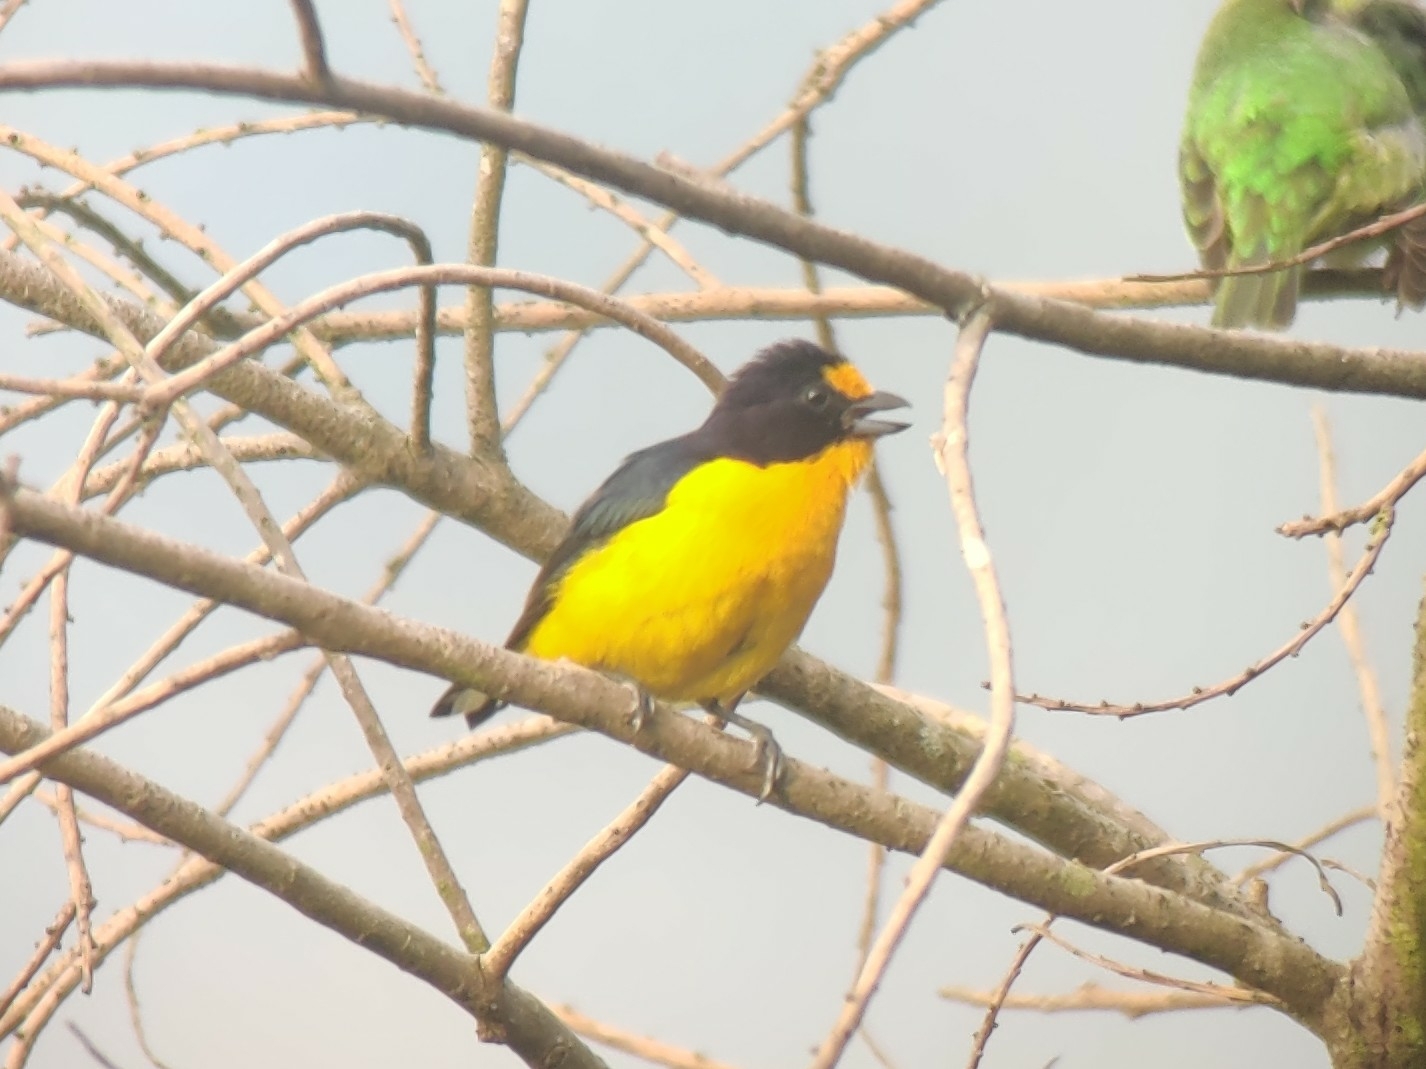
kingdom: Animalia
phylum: Chordata
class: Aves
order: Passeriformes
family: Fringillidae
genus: Euphonia
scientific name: Euphonia violacea
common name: Violaceous euphonia
